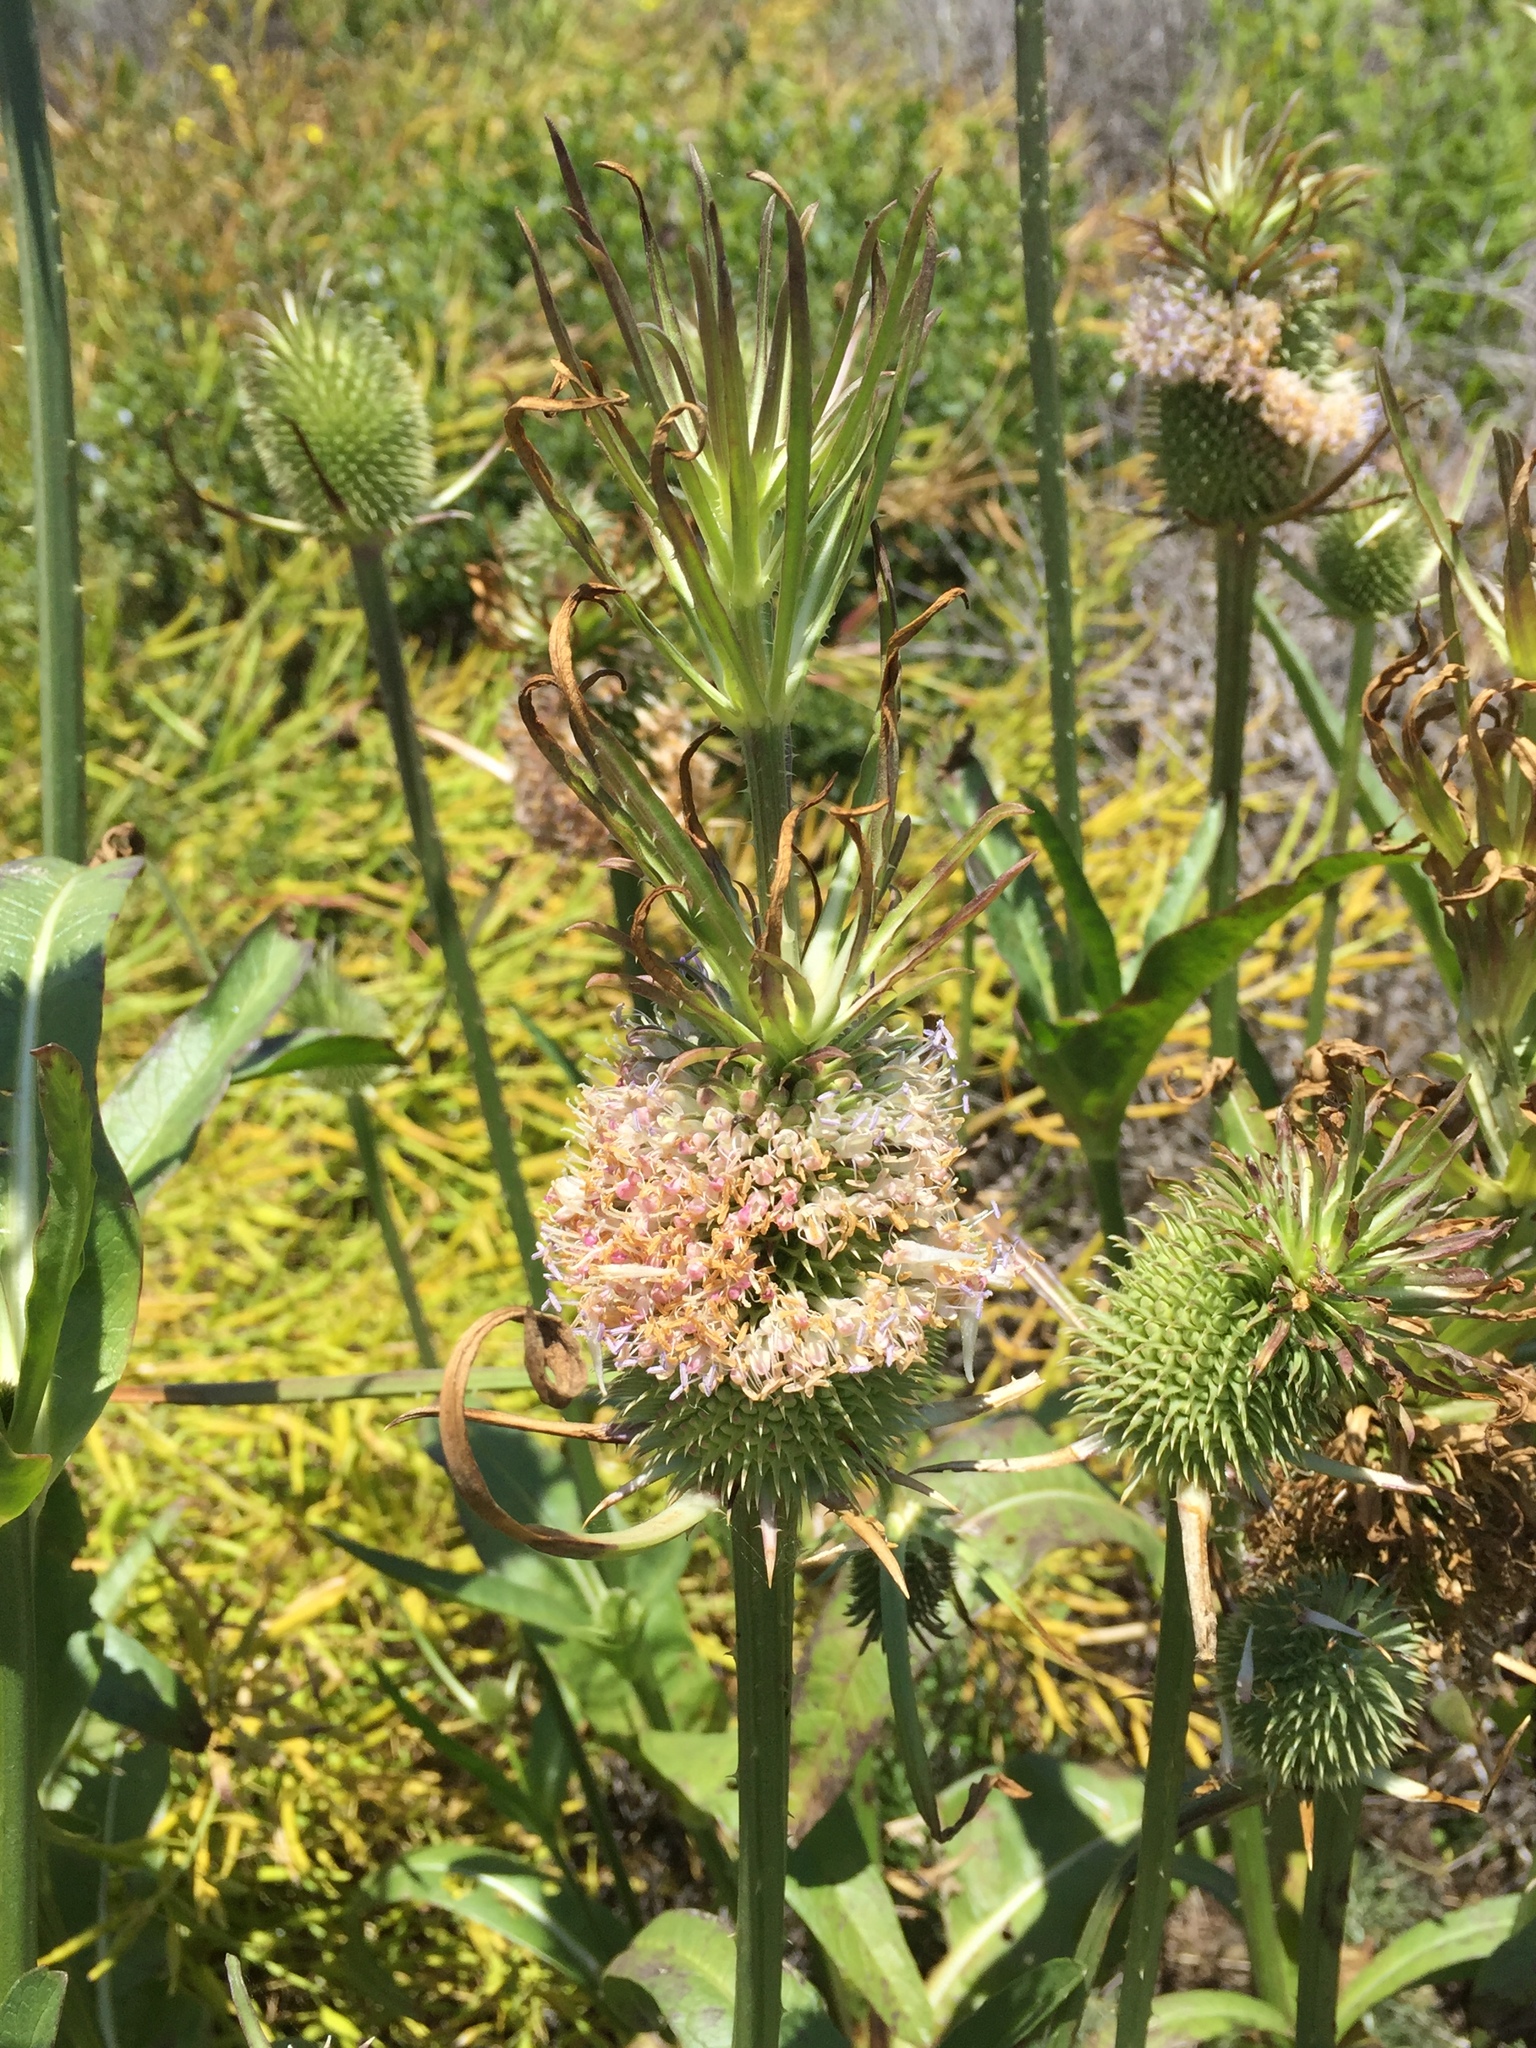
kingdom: Plantae
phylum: Tracheophyta
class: Magnoliopsida
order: Dipsacales
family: Caprifoliaceae
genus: Dipsacus
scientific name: Dipsacus sativus
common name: Fuller's teasel
